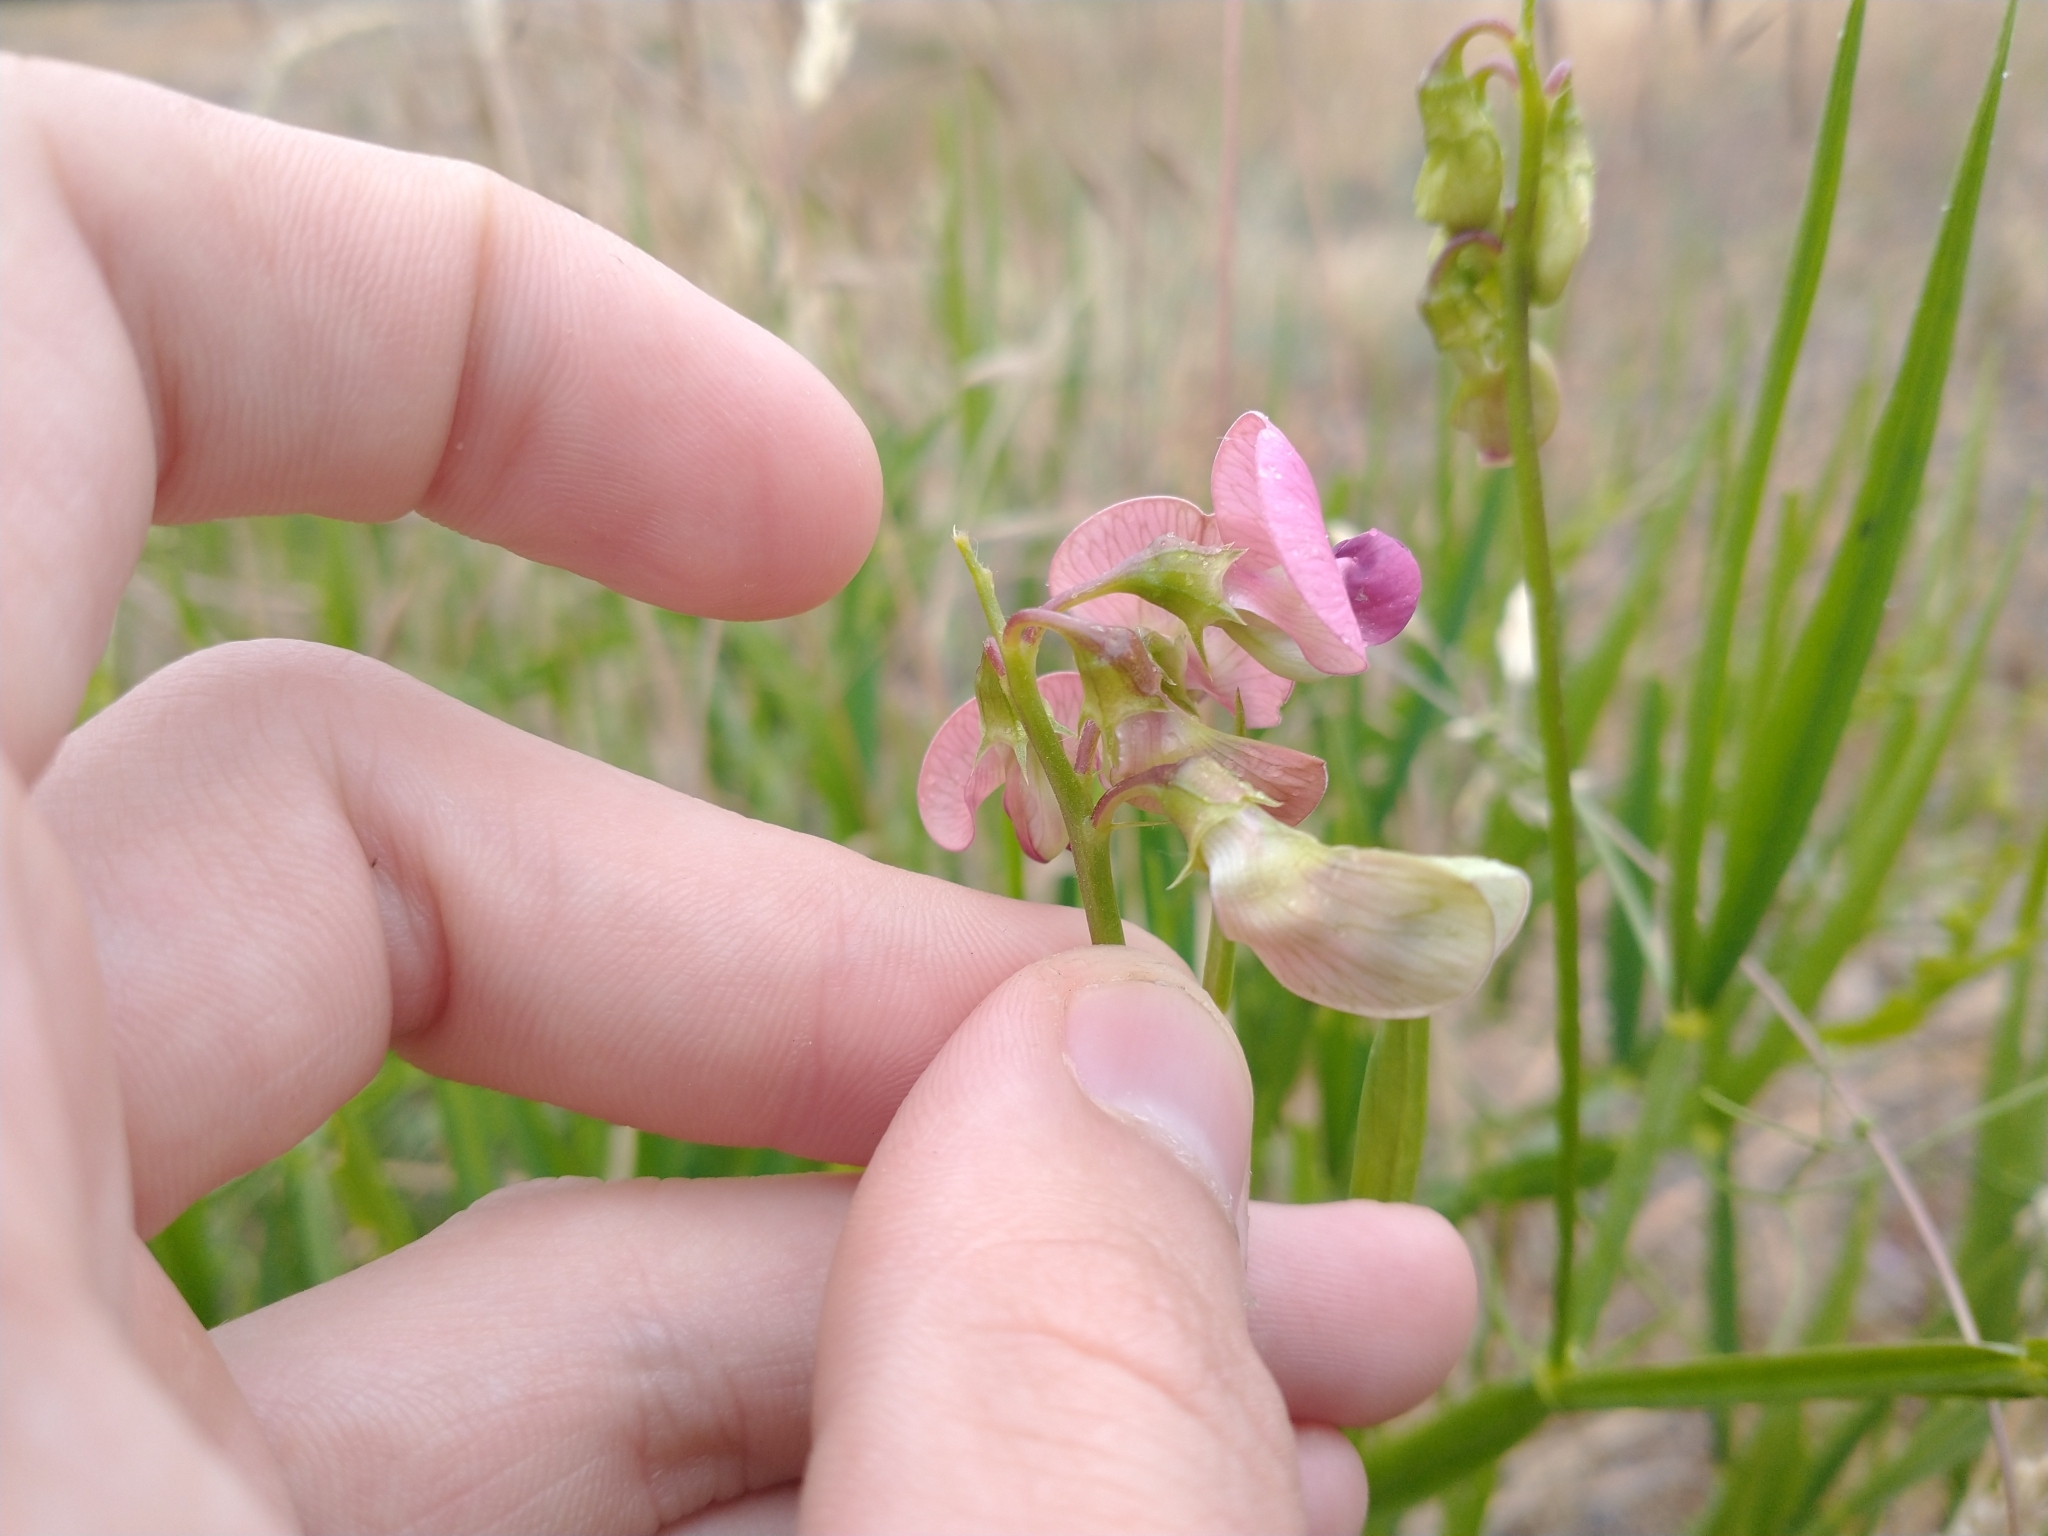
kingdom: Plantae
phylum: Tracheophyta
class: Magnoliopsida
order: Fabales
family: Fabaceae
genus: Lathyrus
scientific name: Lathyrus sylvestris
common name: Flat pea
